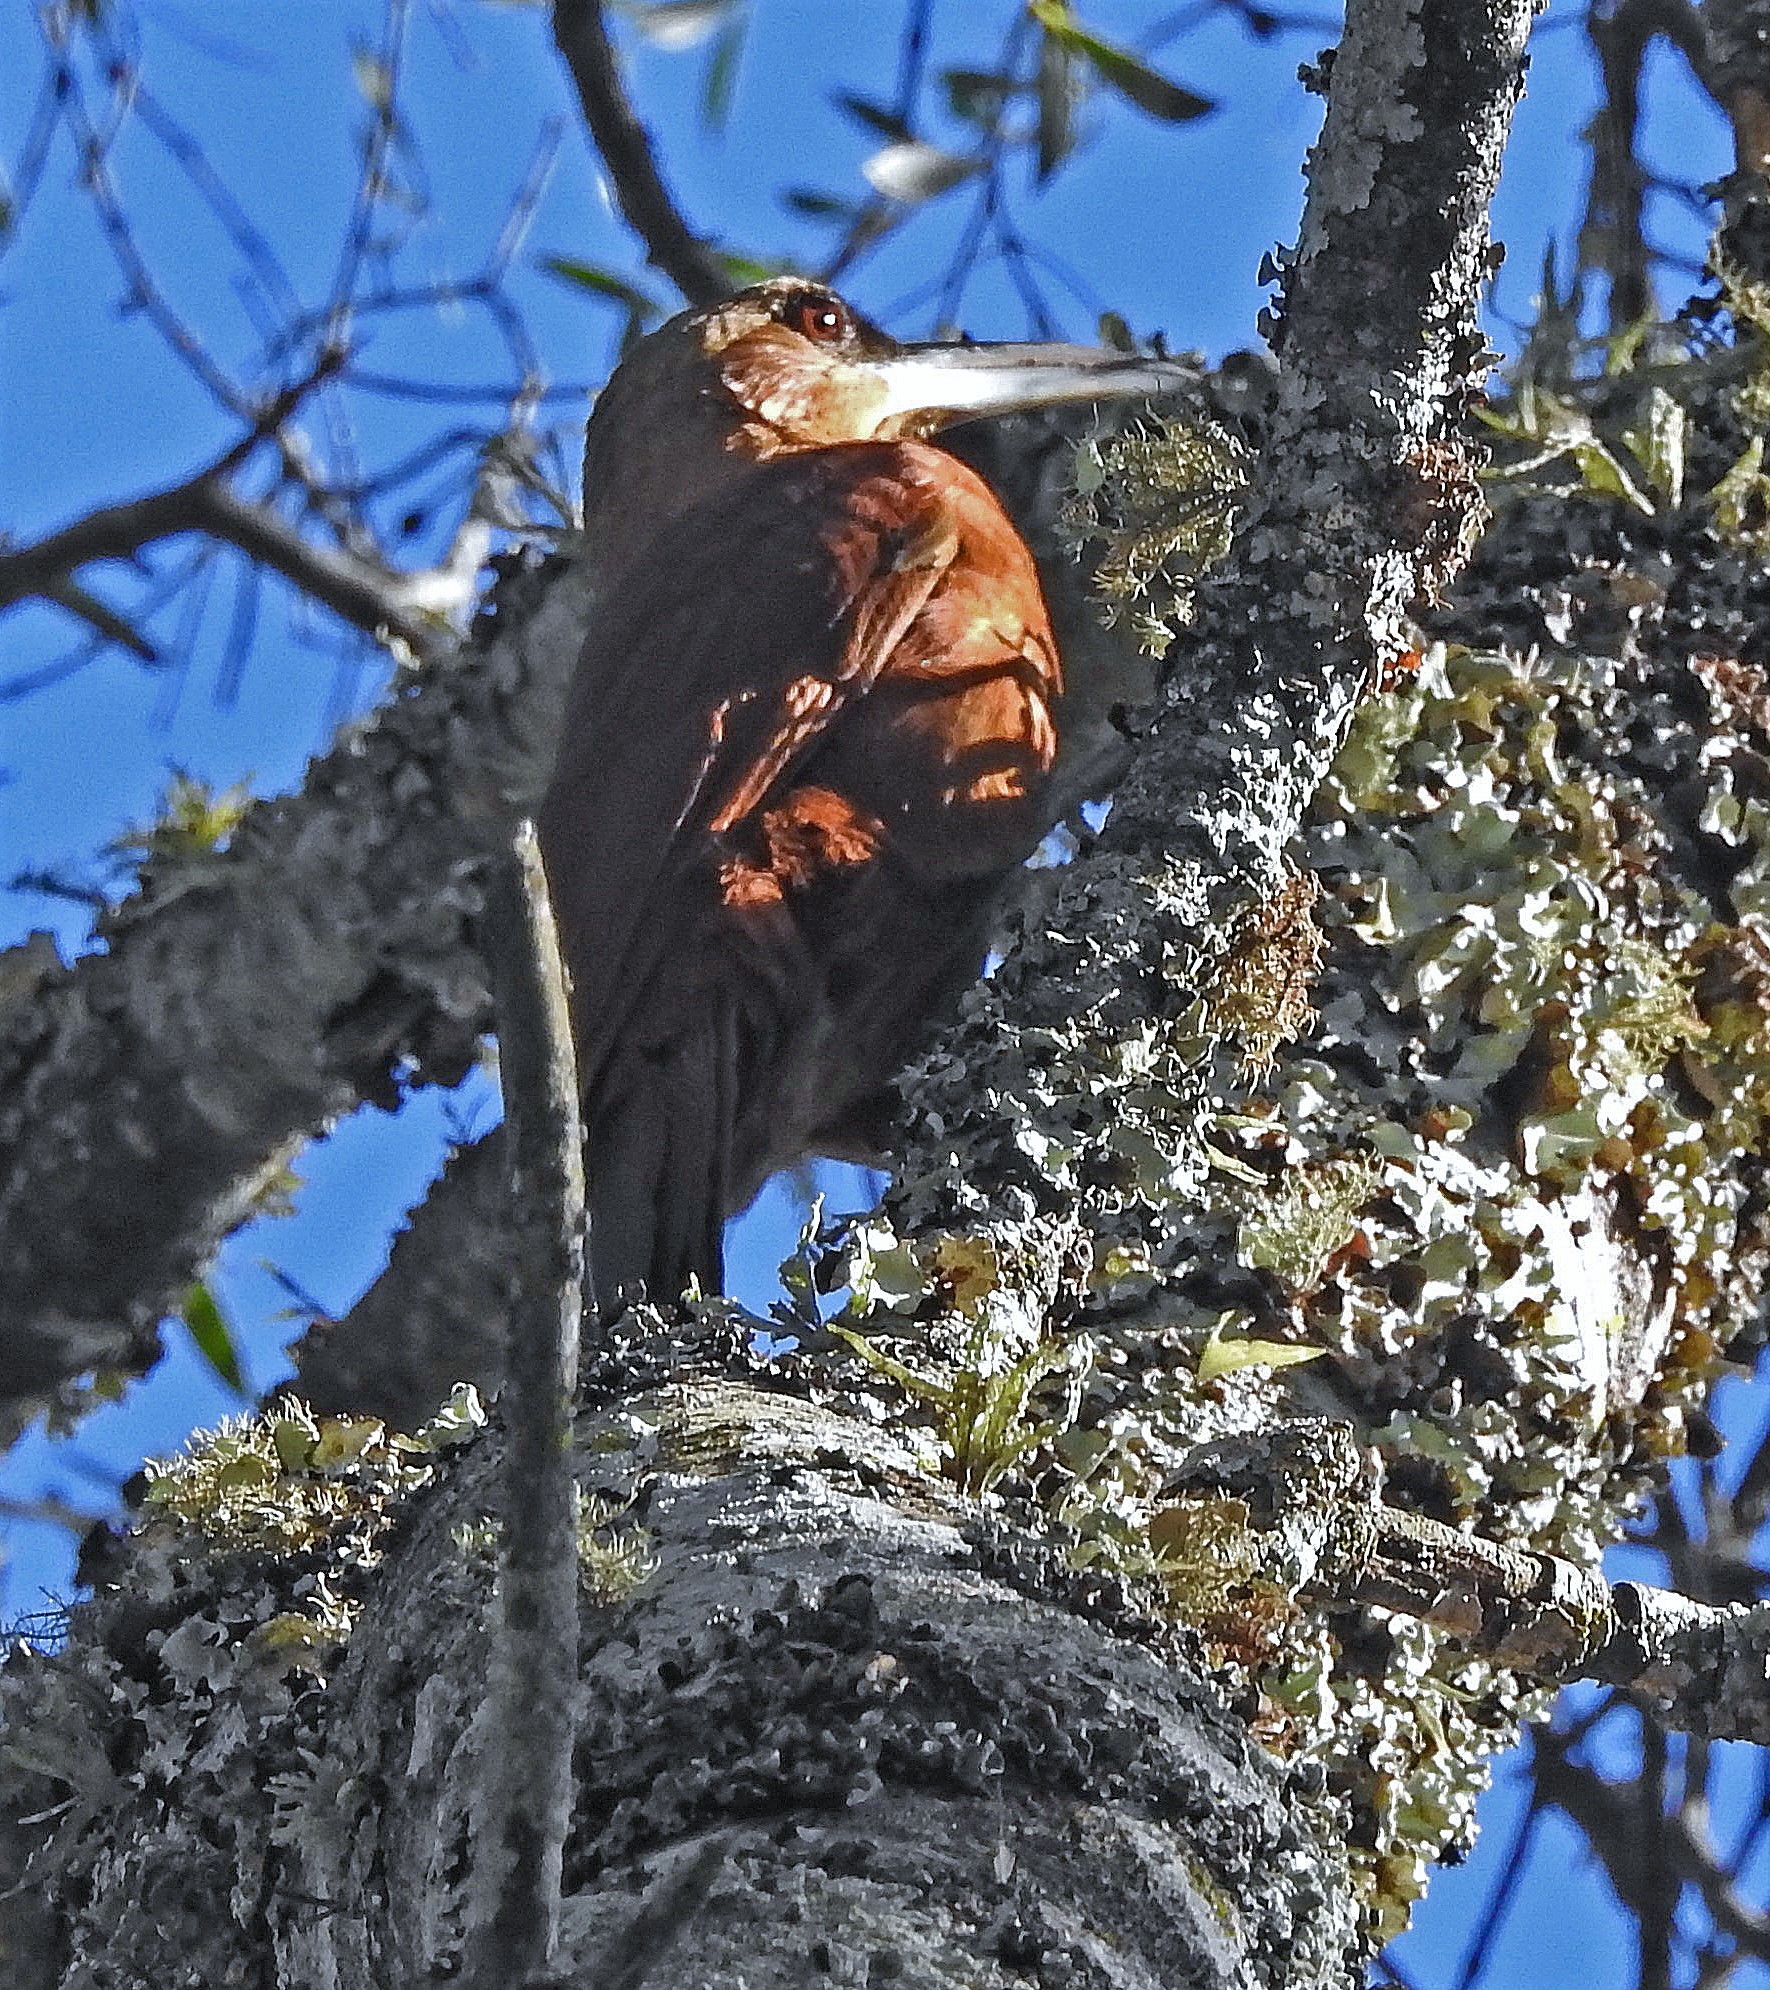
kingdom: Animalia
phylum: Chordata
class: Aves
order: Passeriformes
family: Furnariidae
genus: Xiphocolaptes
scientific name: Xiphocolaptes major
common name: Great rufous woodcreeper
